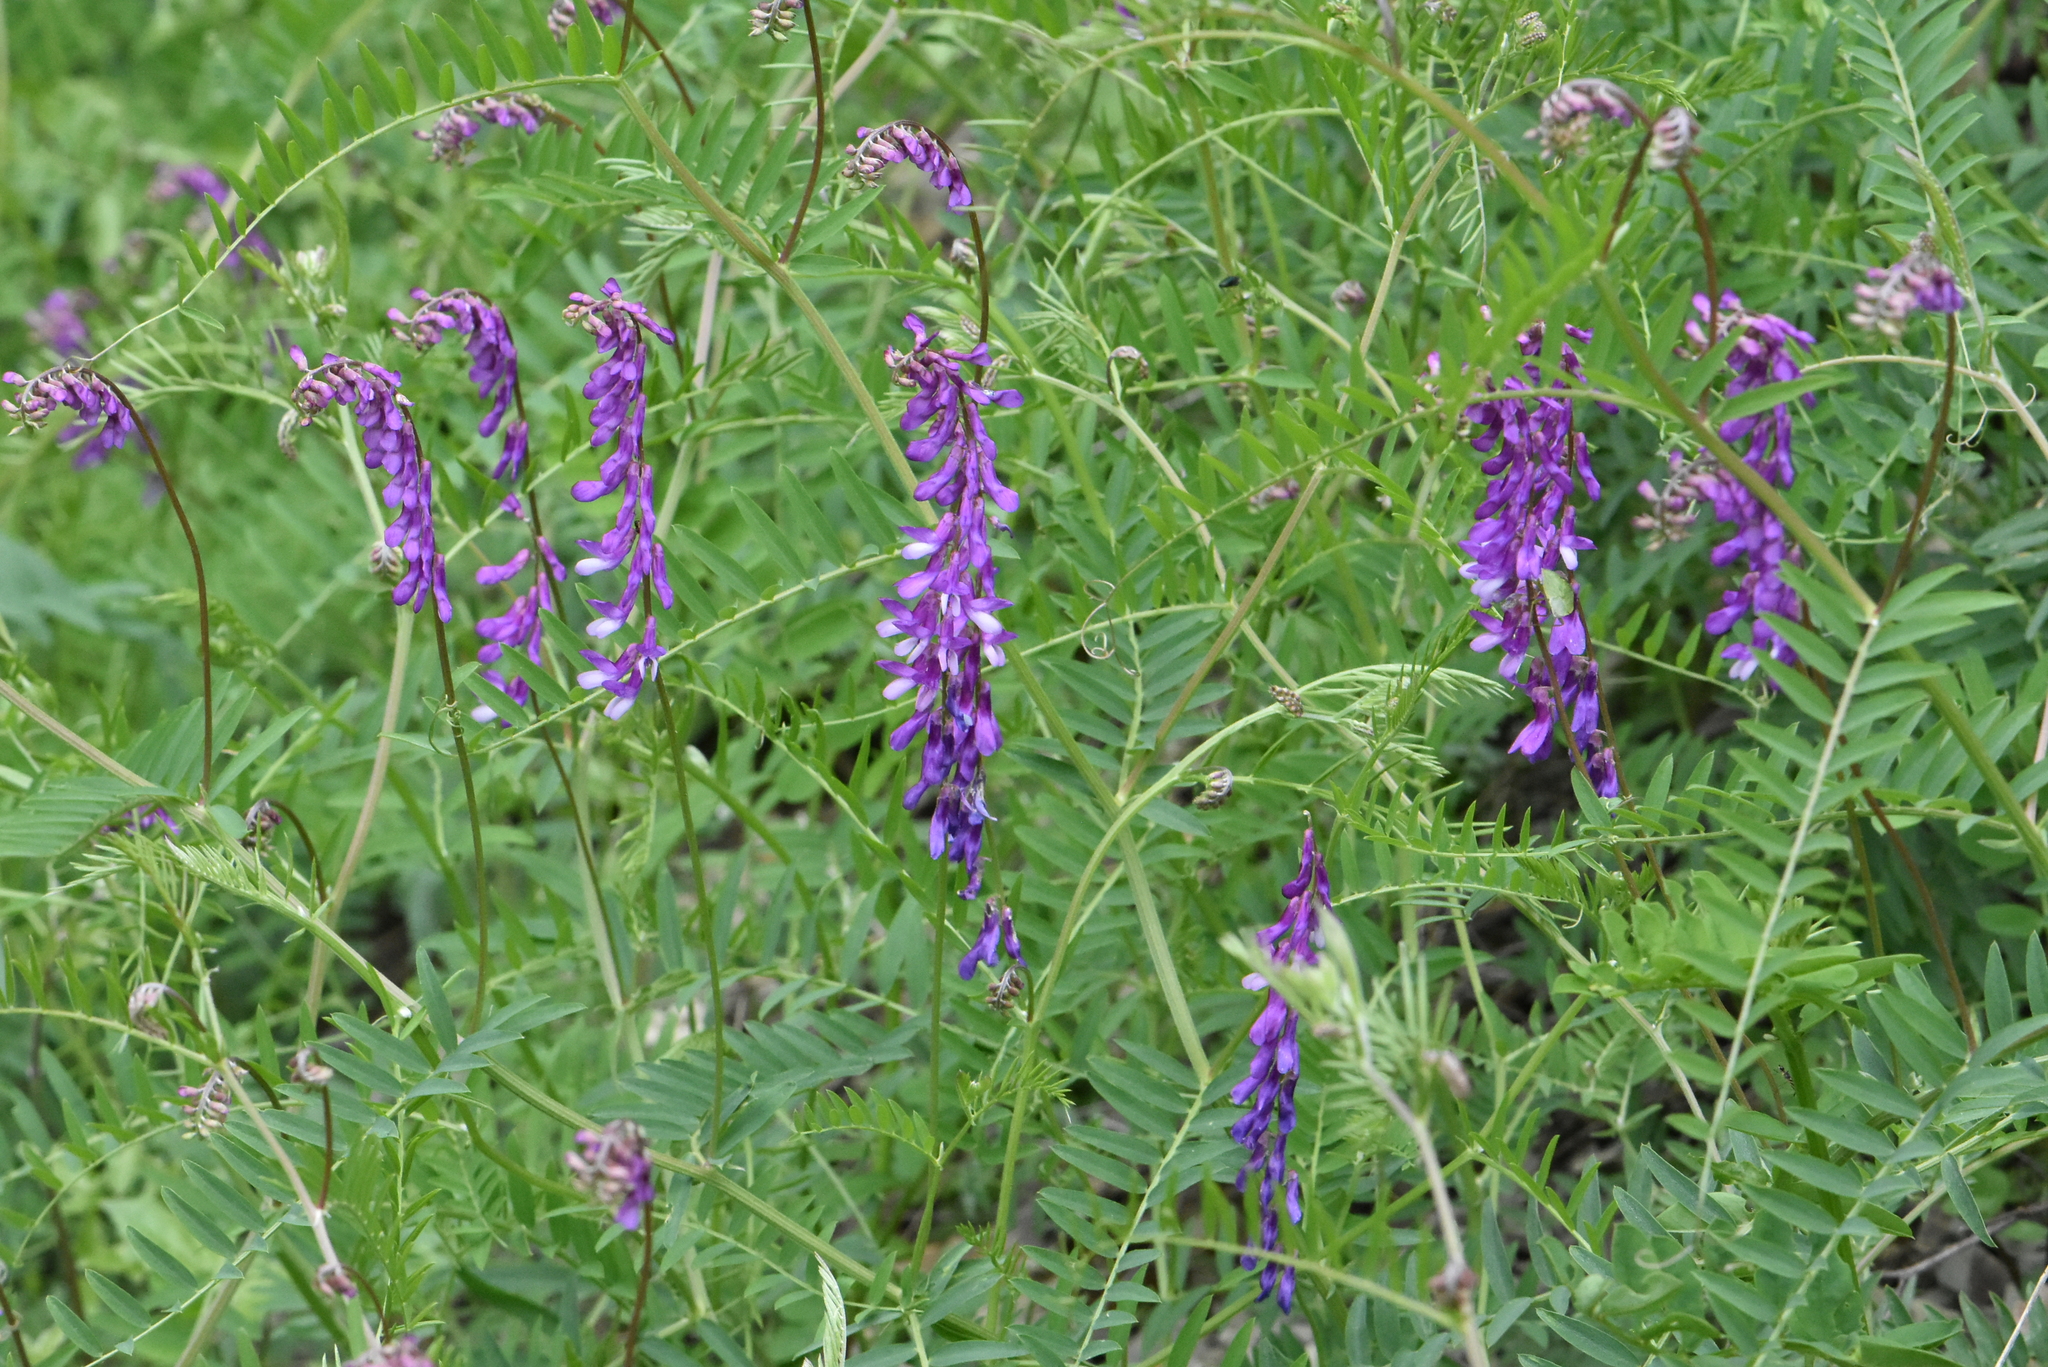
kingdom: Plantae
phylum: Tracheophyta
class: Magnoliopsida
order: Fabales
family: Fabaceae
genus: Vicia
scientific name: Vicia tenuifolia
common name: Fine-leaved vetch
